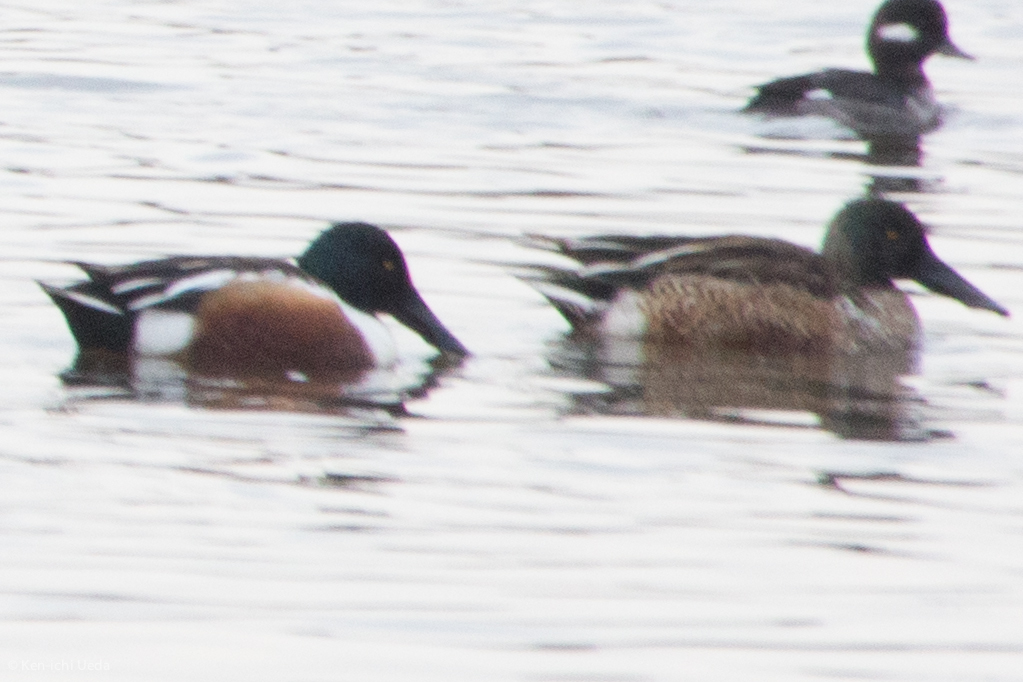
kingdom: Animalia
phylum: Chordata
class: Aves
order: Anseriformes
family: Anatidae
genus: Spatula
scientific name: Spatula clypeata
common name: Northern shoveler
